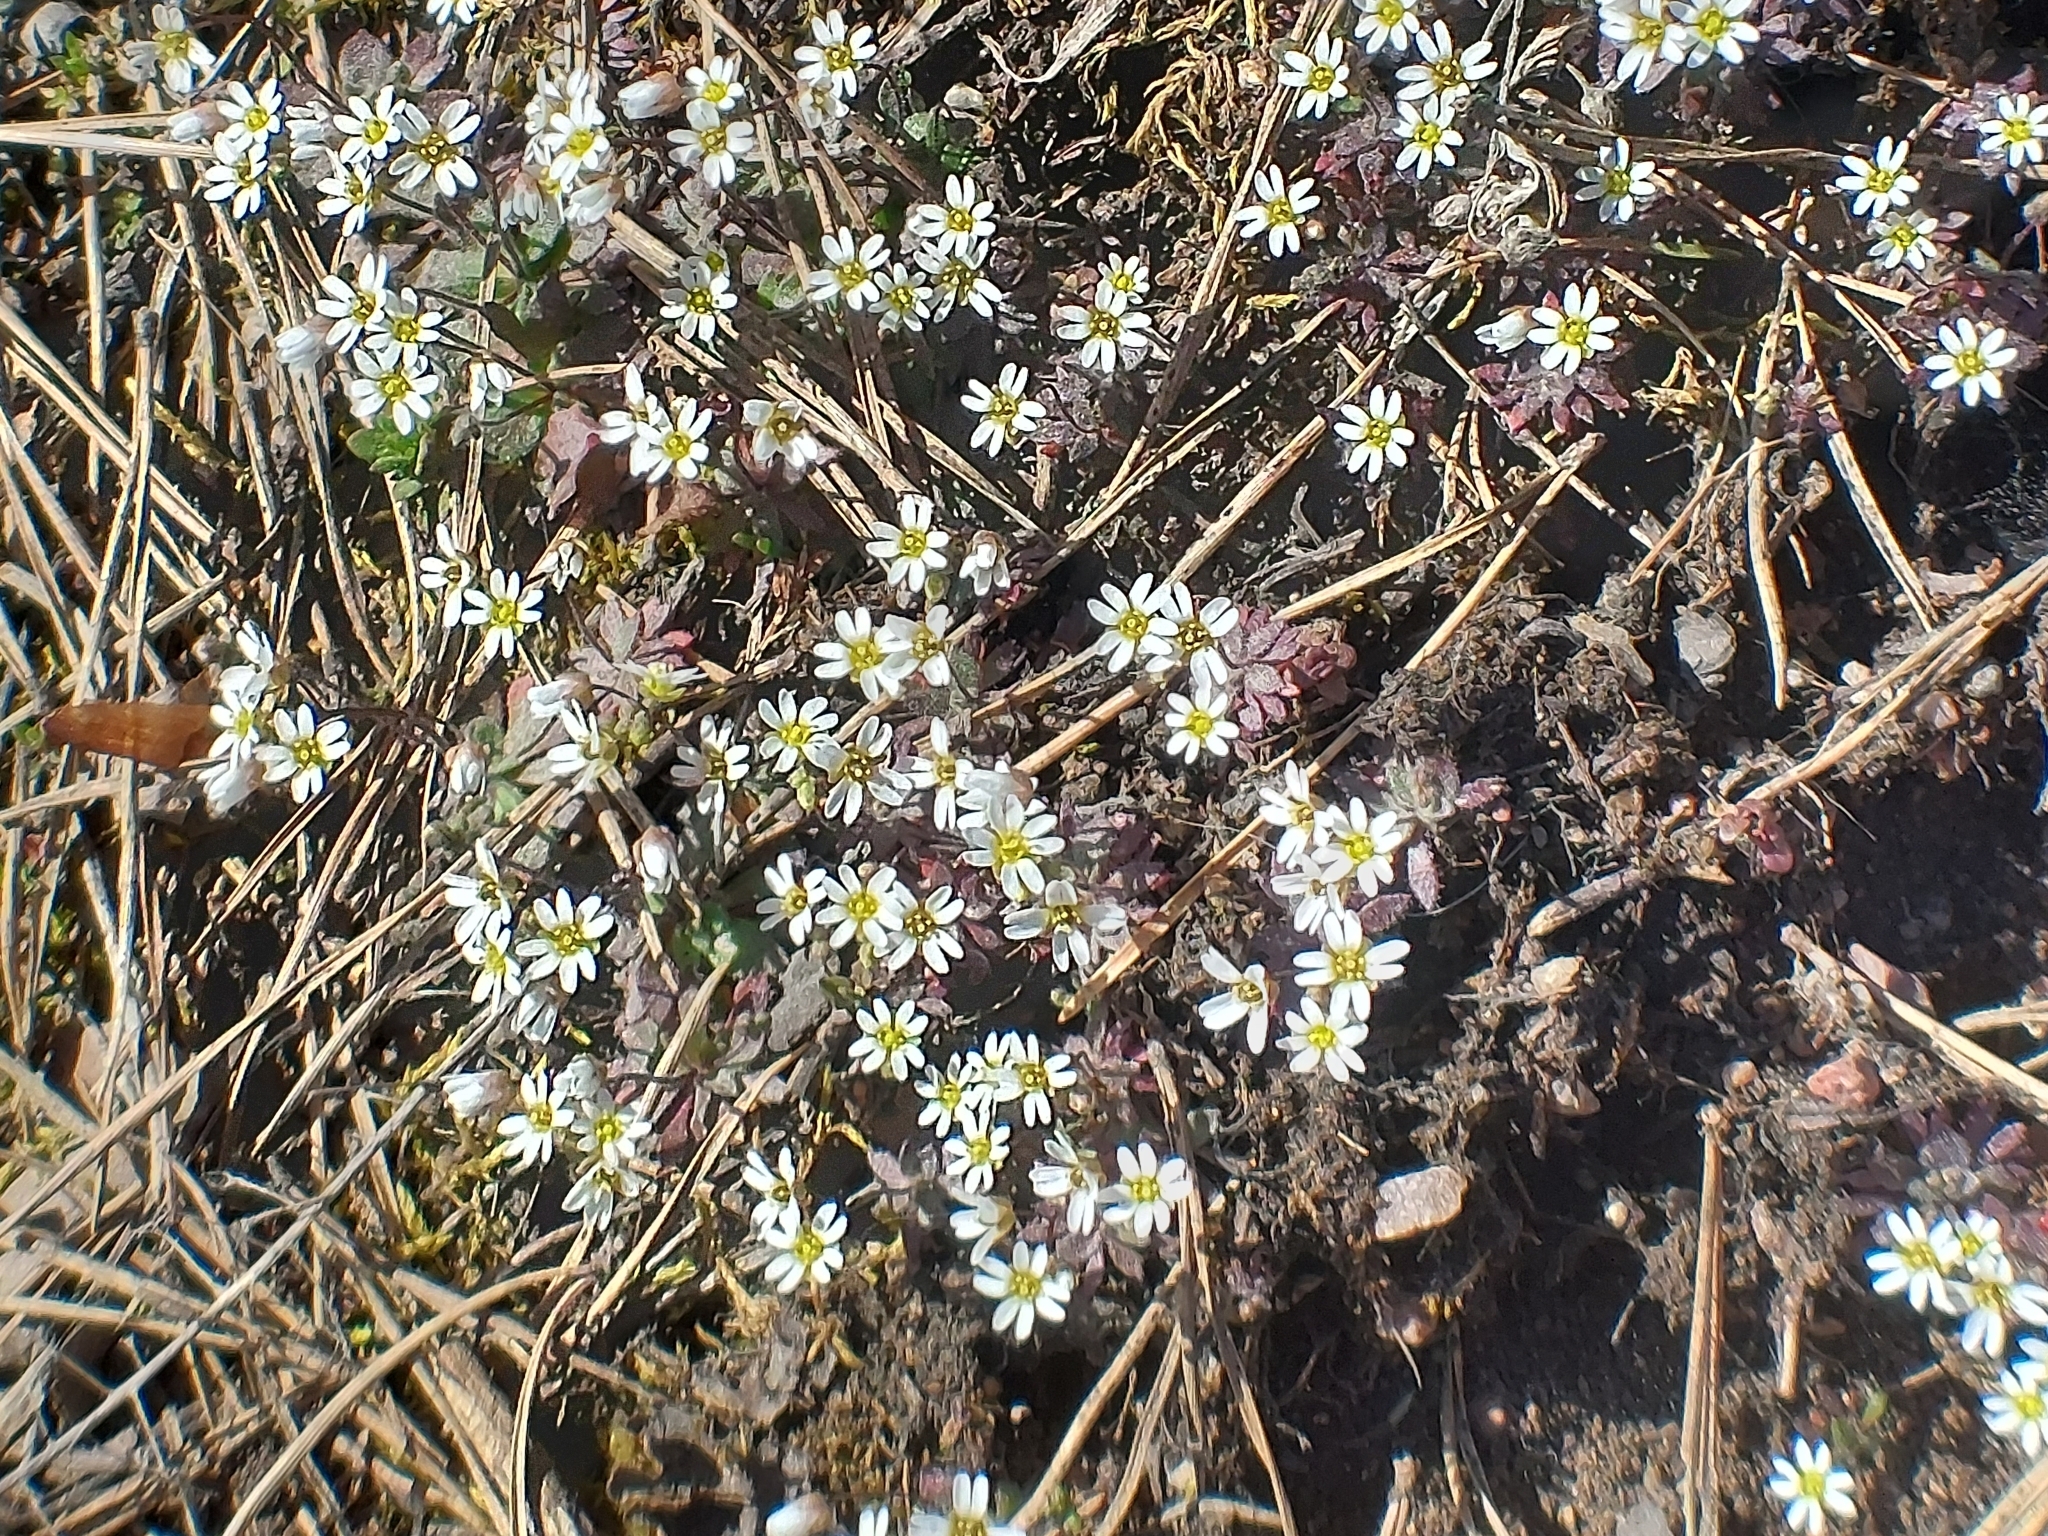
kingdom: Plantae
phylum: Tracheophyta
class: Magnoliopsida
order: Brassicales
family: Brassicaceae
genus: Draba
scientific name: Draba verna
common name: Spring draba
